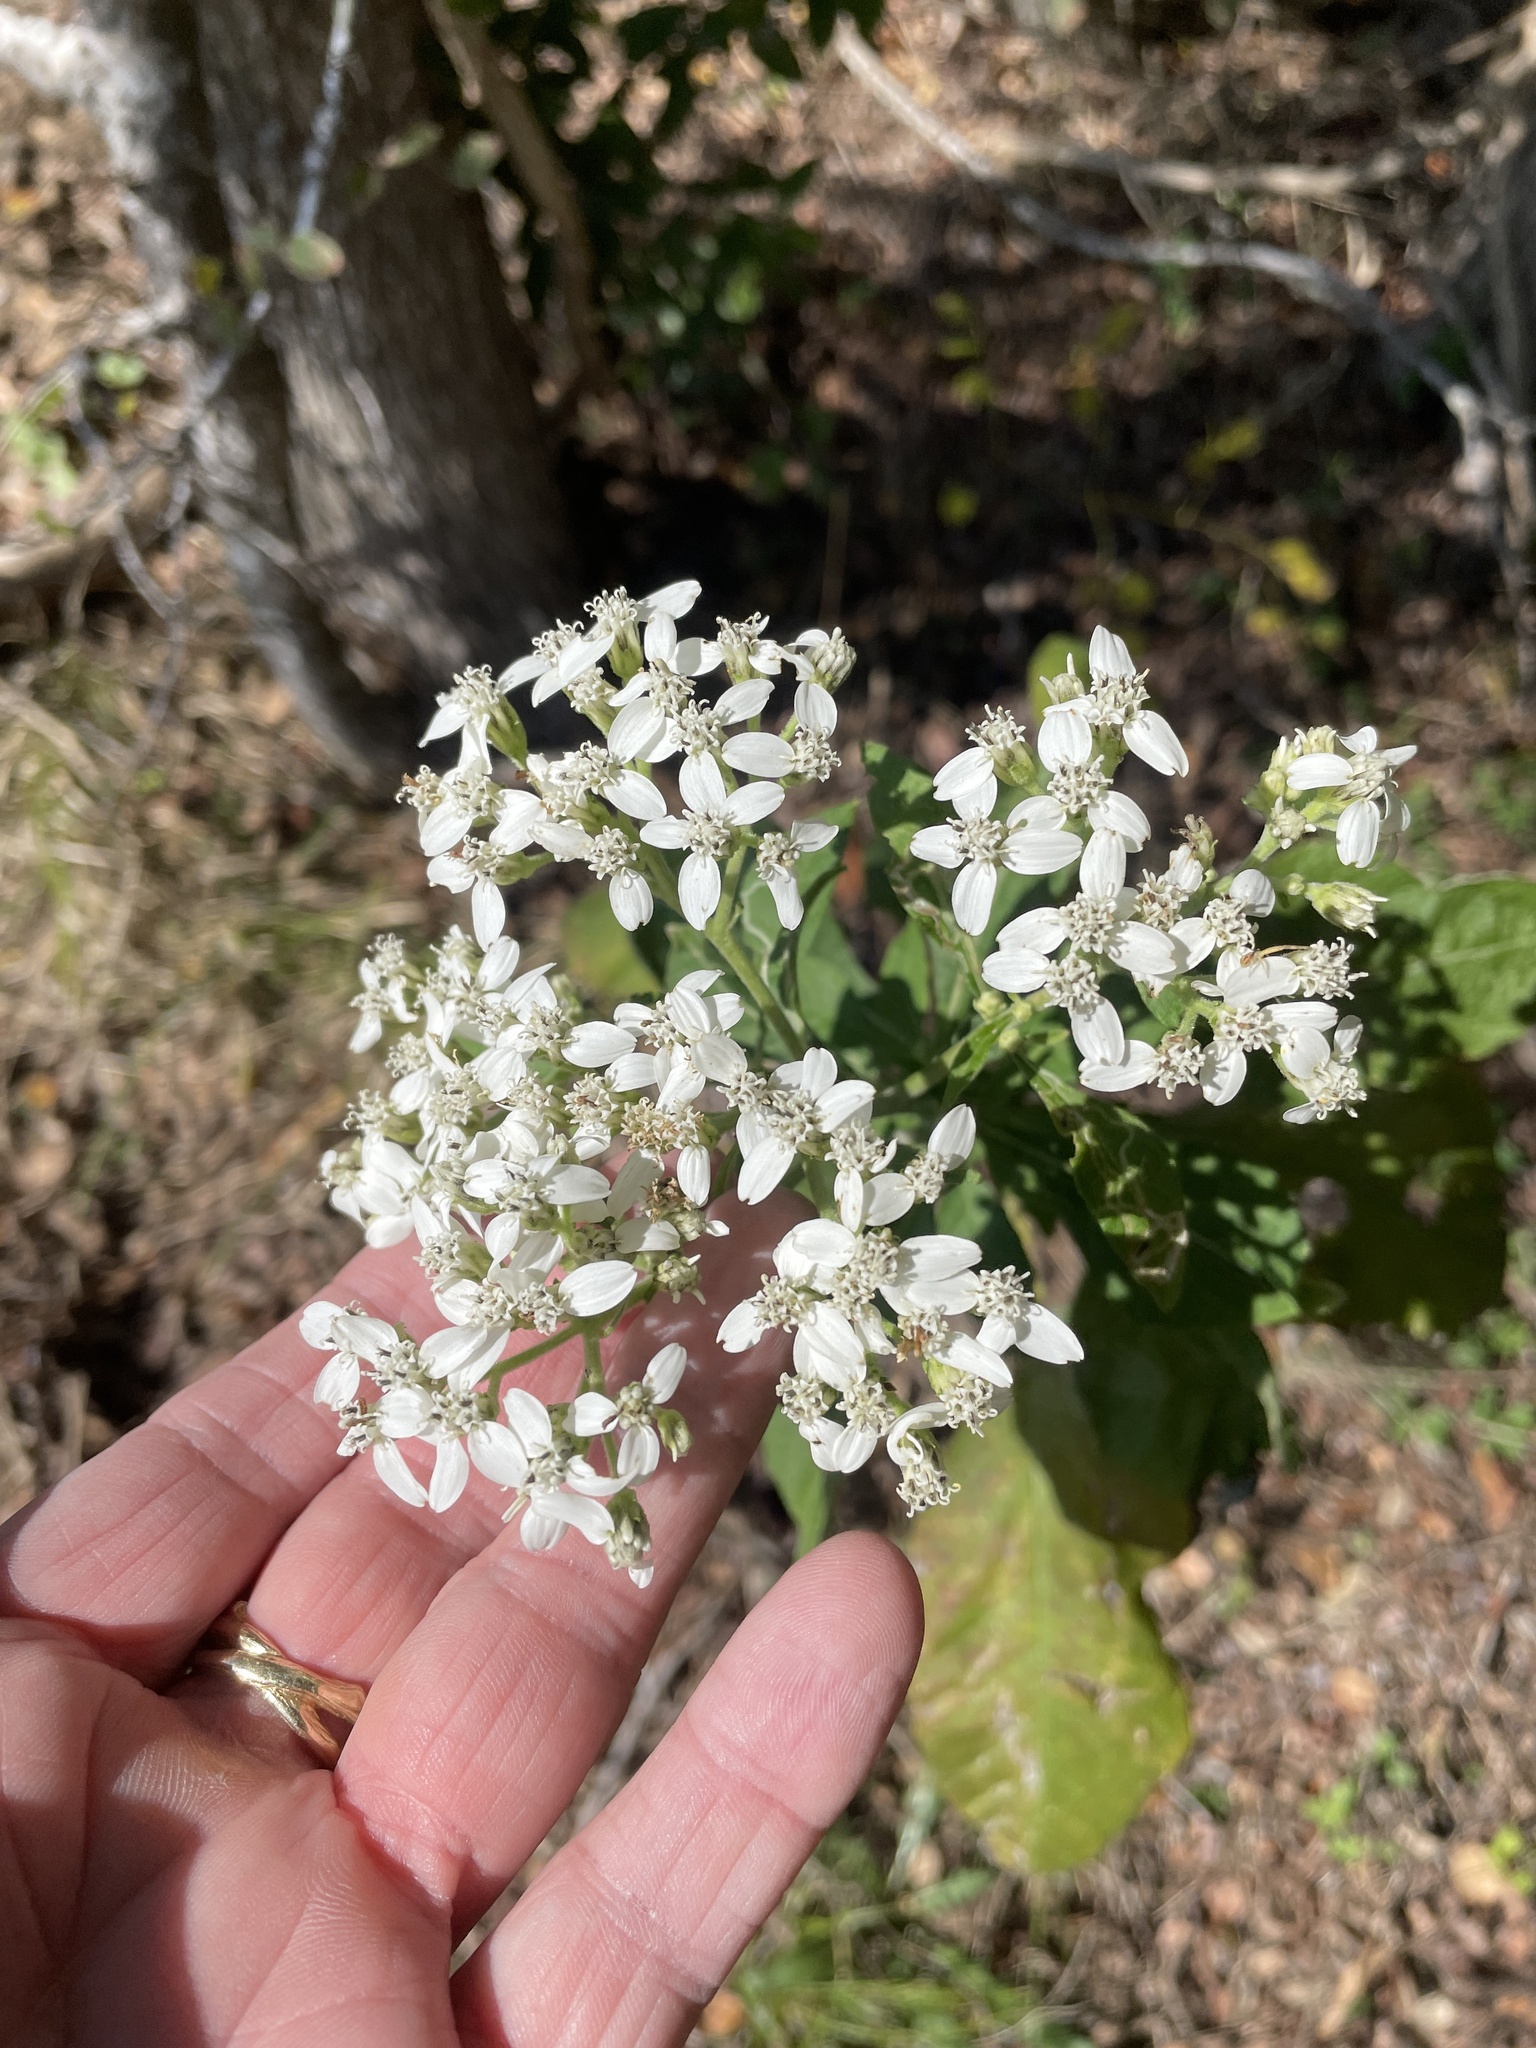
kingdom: Plantae
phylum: Tracheophyta
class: Magnoliopsida
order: Asterales
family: Asteraceae
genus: Verbesina
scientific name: Verbesina virginica
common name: Frostweed
